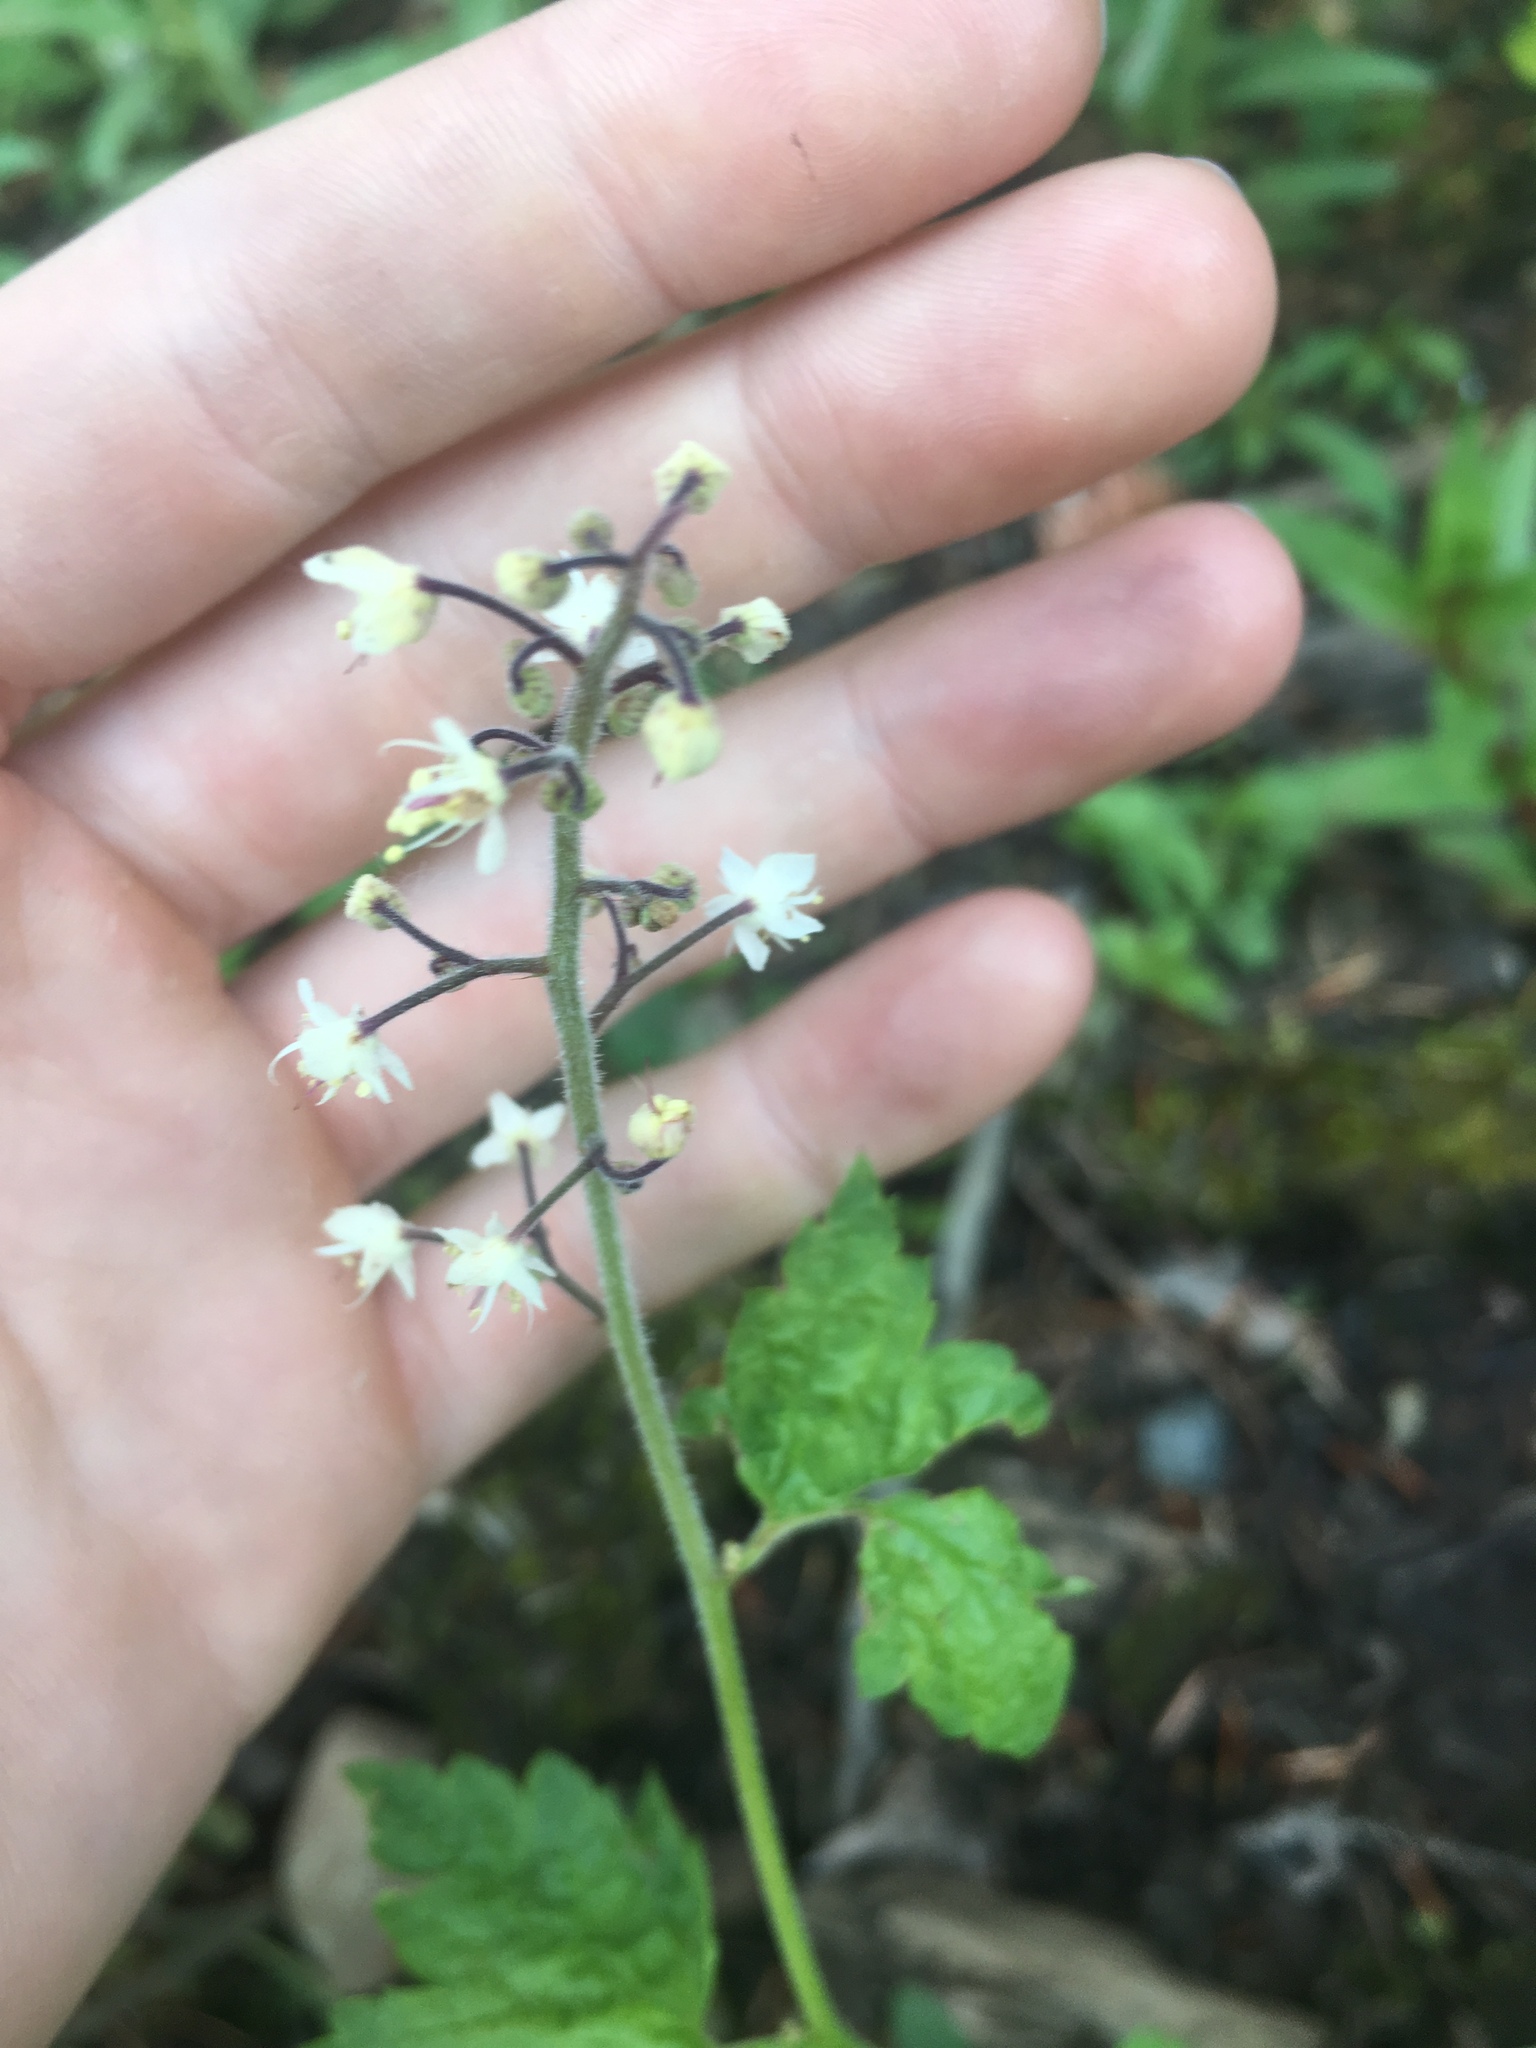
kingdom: Plantae
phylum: Tracheophyta
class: Magnoliopsida
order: Saxifragales
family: Saxifragaceae
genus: Tiarella
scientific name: Tiarella trifoliata
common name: Sugar-scoop
